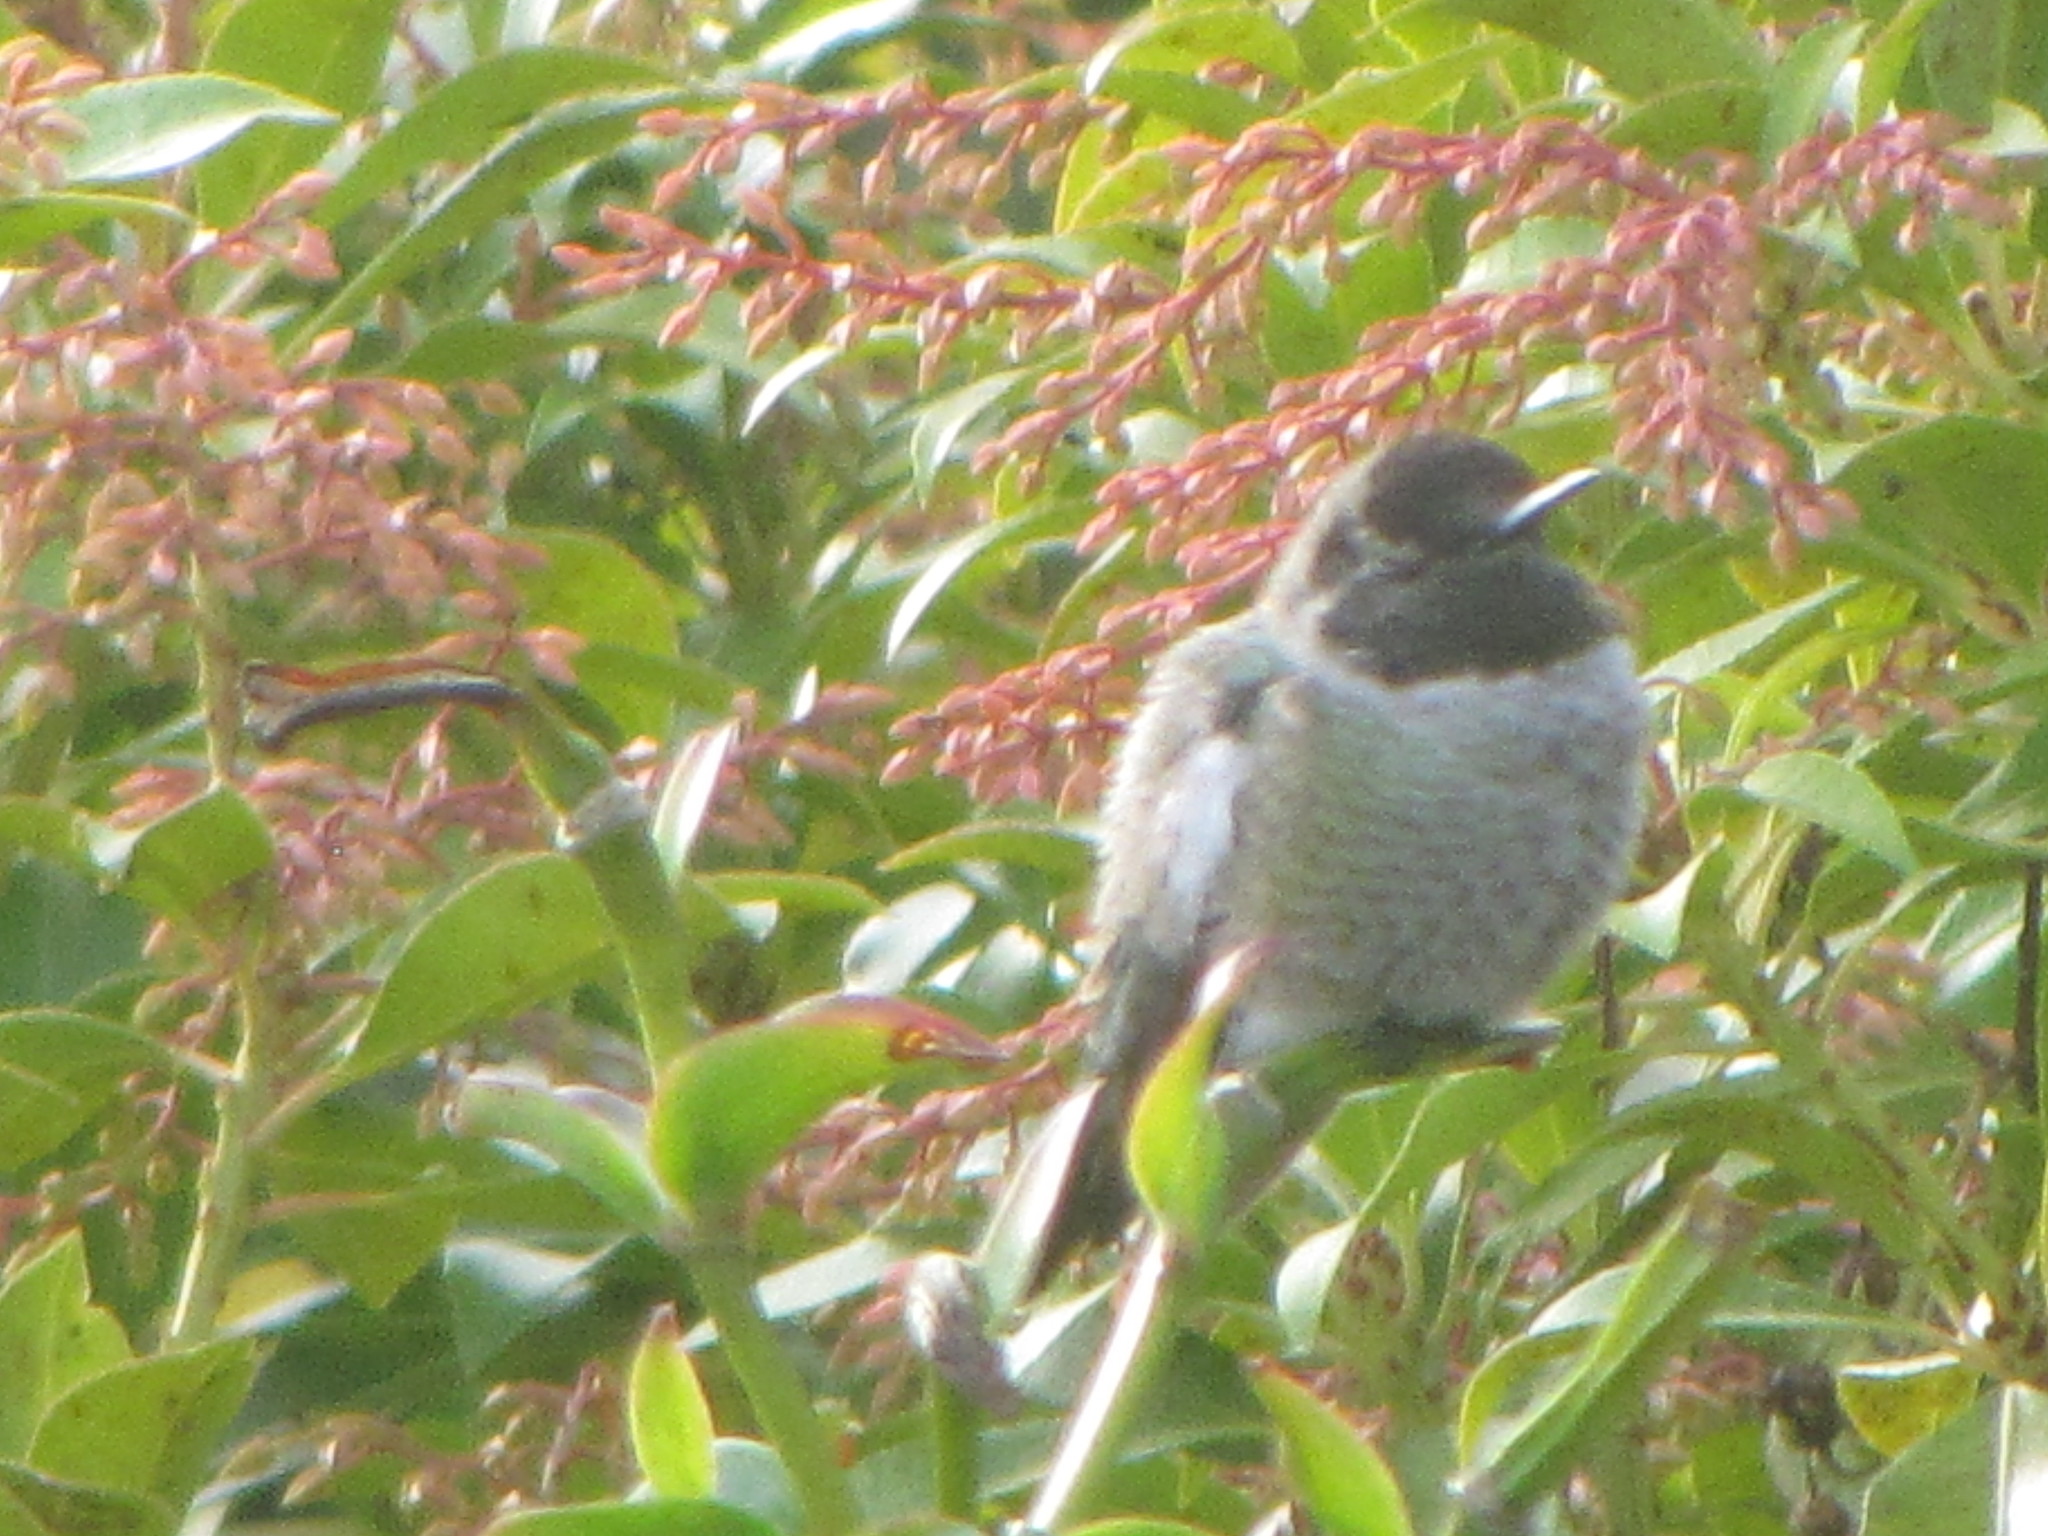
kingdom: Animalia
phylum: Chordata
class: Aves
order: Apodiformes
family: Trochilidae
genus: Calypte
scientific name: Calypte anna
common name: Anna's hummingbird
